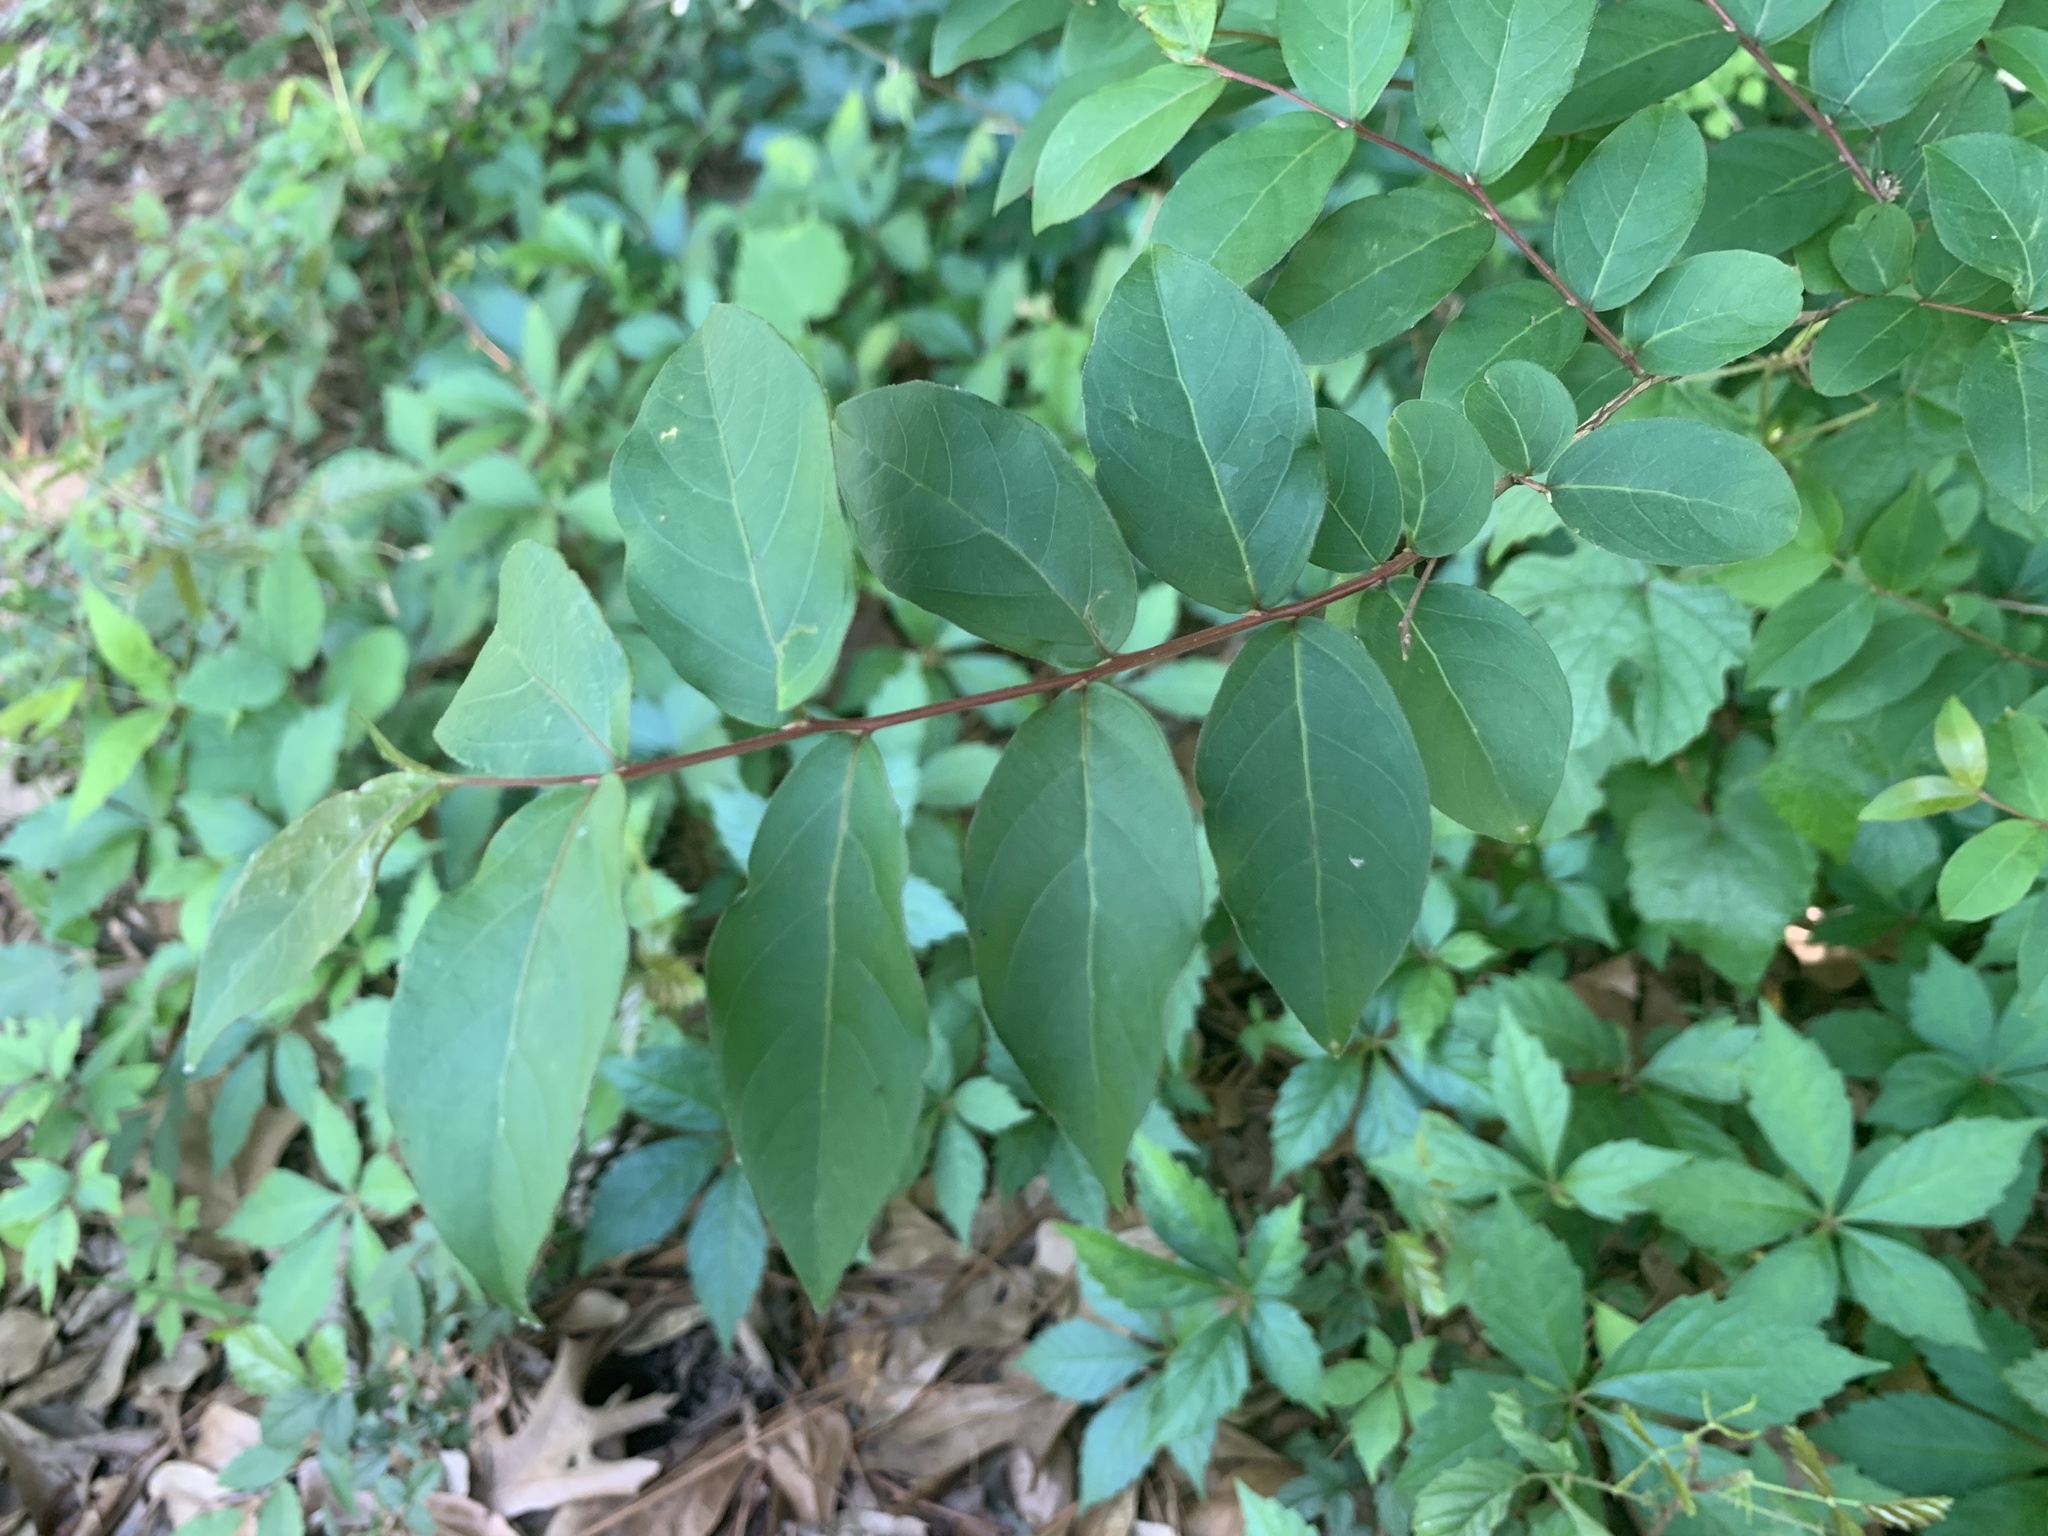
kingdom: Plantae
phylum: Tracheophyta
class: Magnoliopsida
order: Myrtales
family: Lythraceae
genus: Lagerstroemia
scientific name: Lagerstroemia indica
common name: Crape-myrtle
